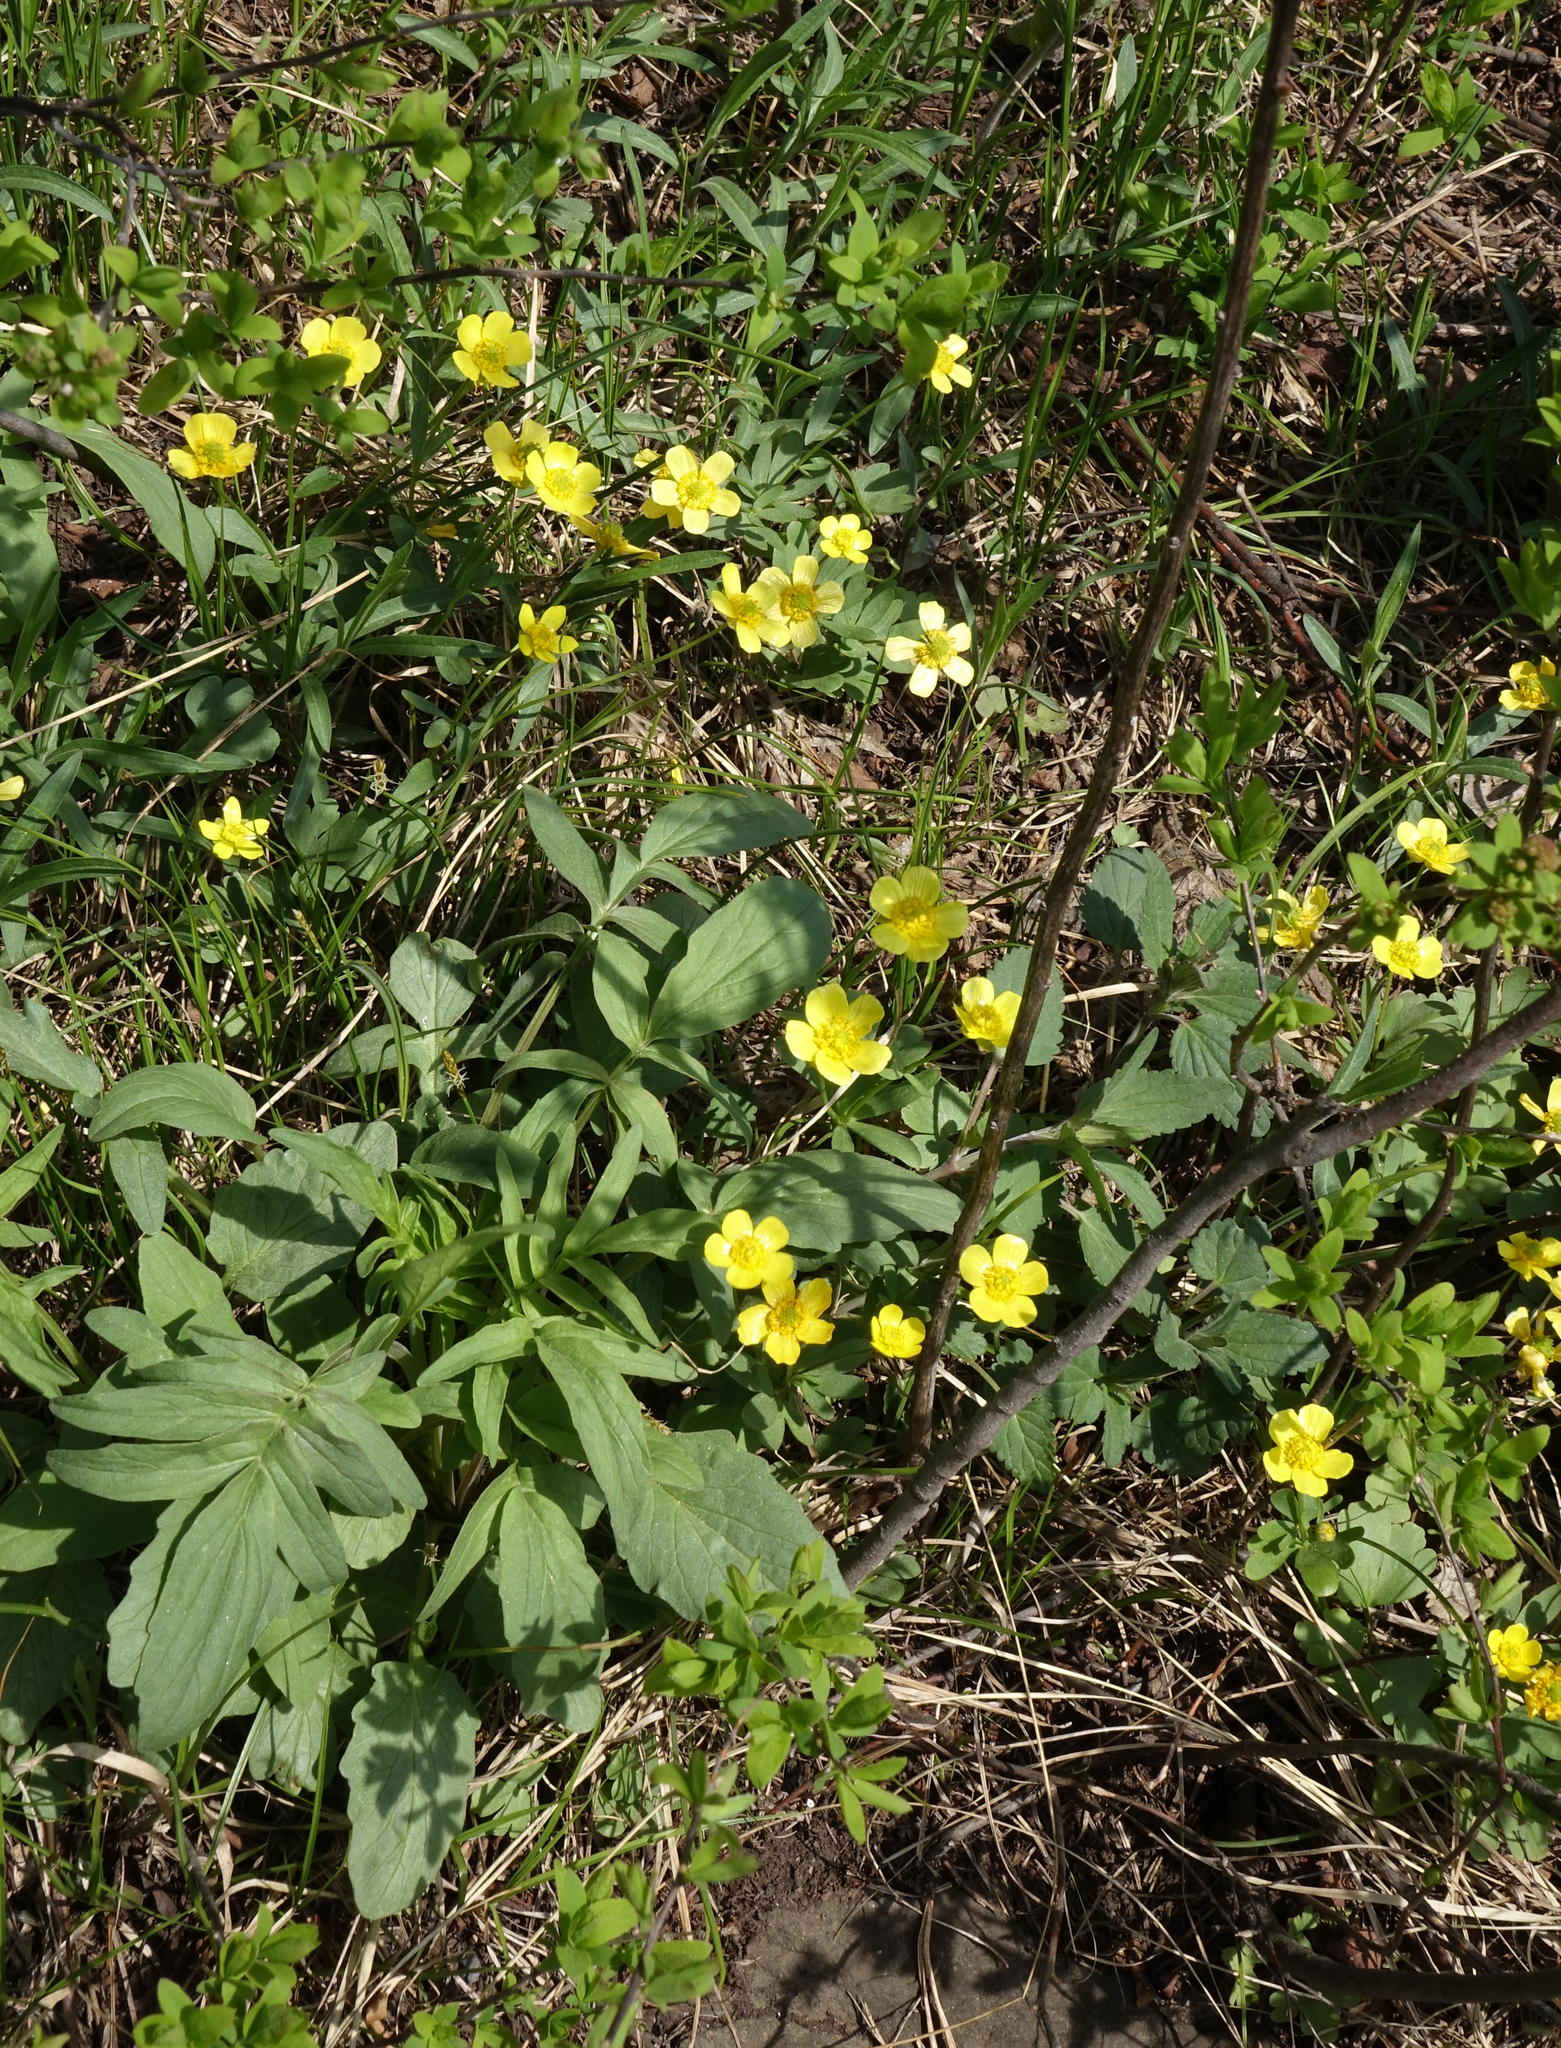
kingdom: Plantae
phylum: Tracheophyta
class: Magnoliopsida
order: Ranunculales
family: Ranunculaceae
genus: Ranunculus
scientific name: Ranunculus polyrhizos
